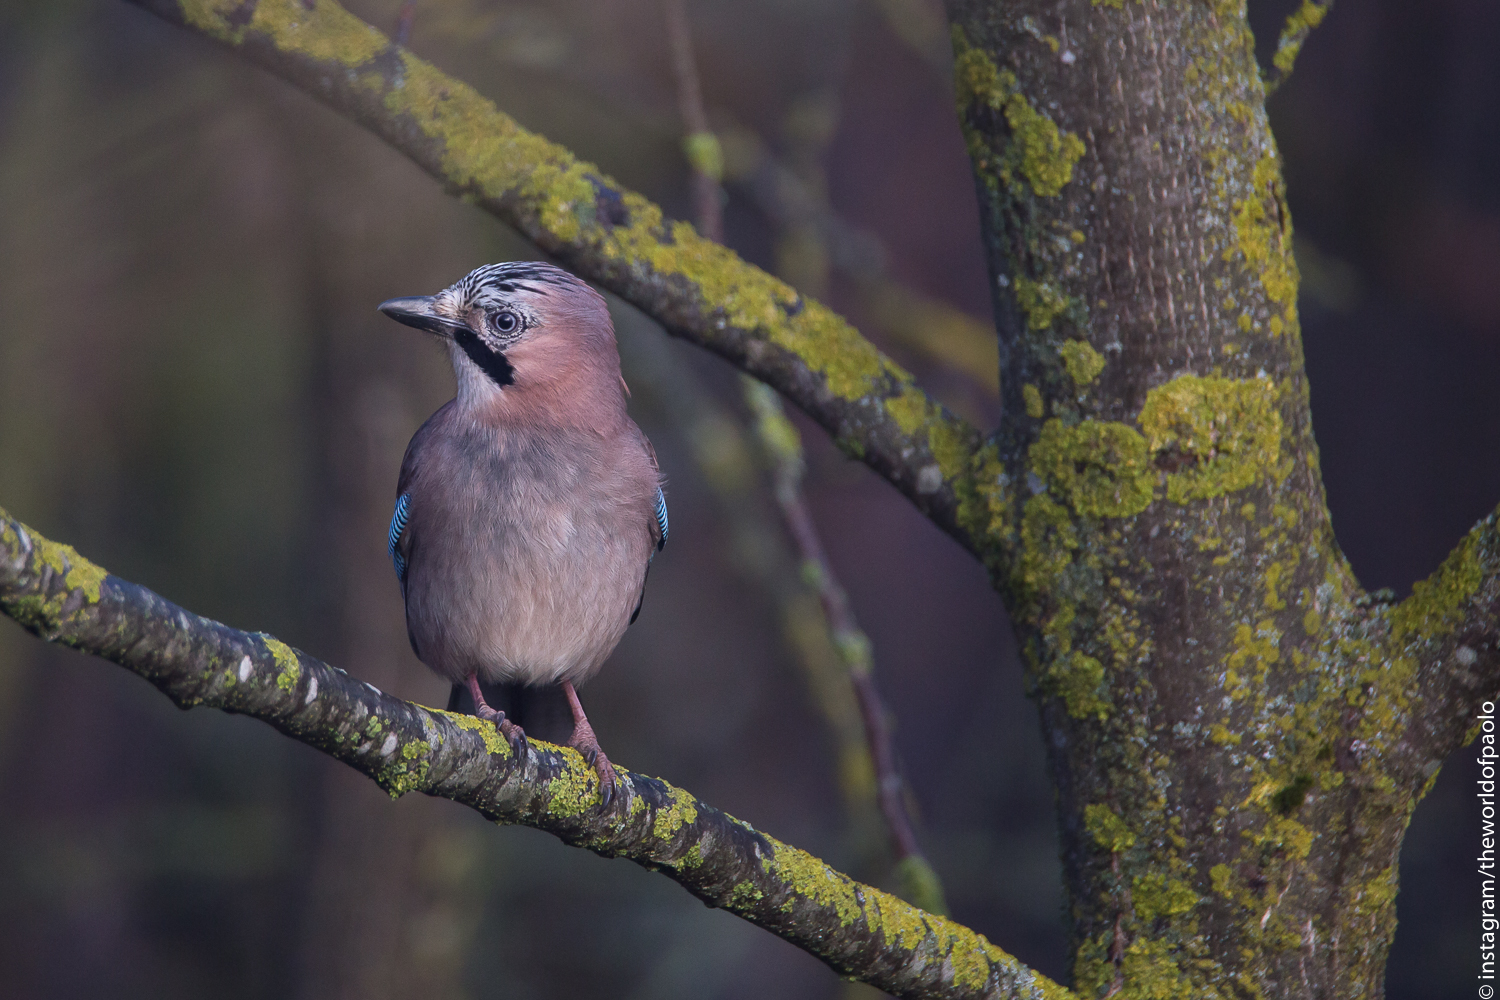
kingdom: Animalia
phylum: Chordata
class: Aves
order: Passeriformes
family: Corvidae
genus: Garrulus
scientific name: Garrulus glandarius
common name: Eurasian jay
